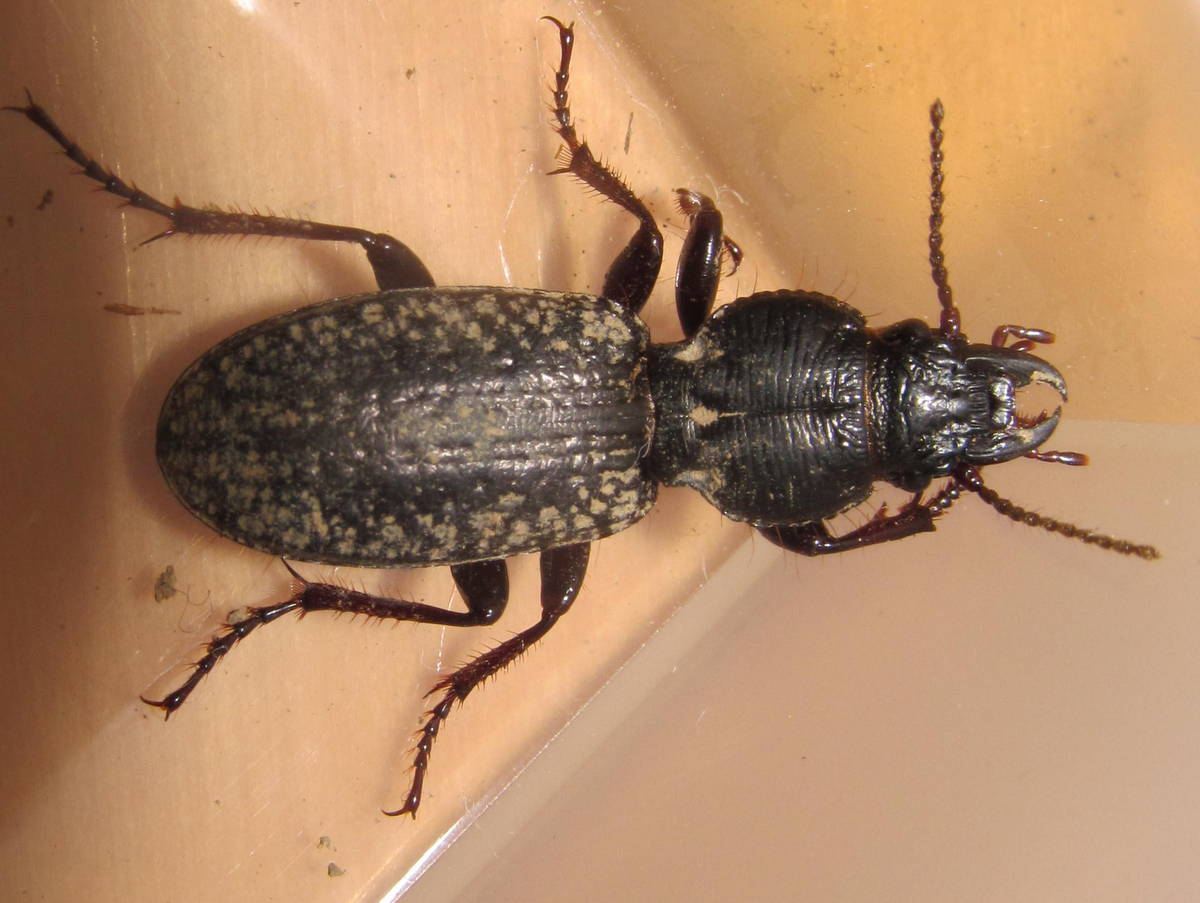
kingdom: Animalia
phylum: Arthropoda
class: Insecta
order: Coleoptera
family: Carabidae
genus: Mecodema
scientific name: Mecodema crenicolle
